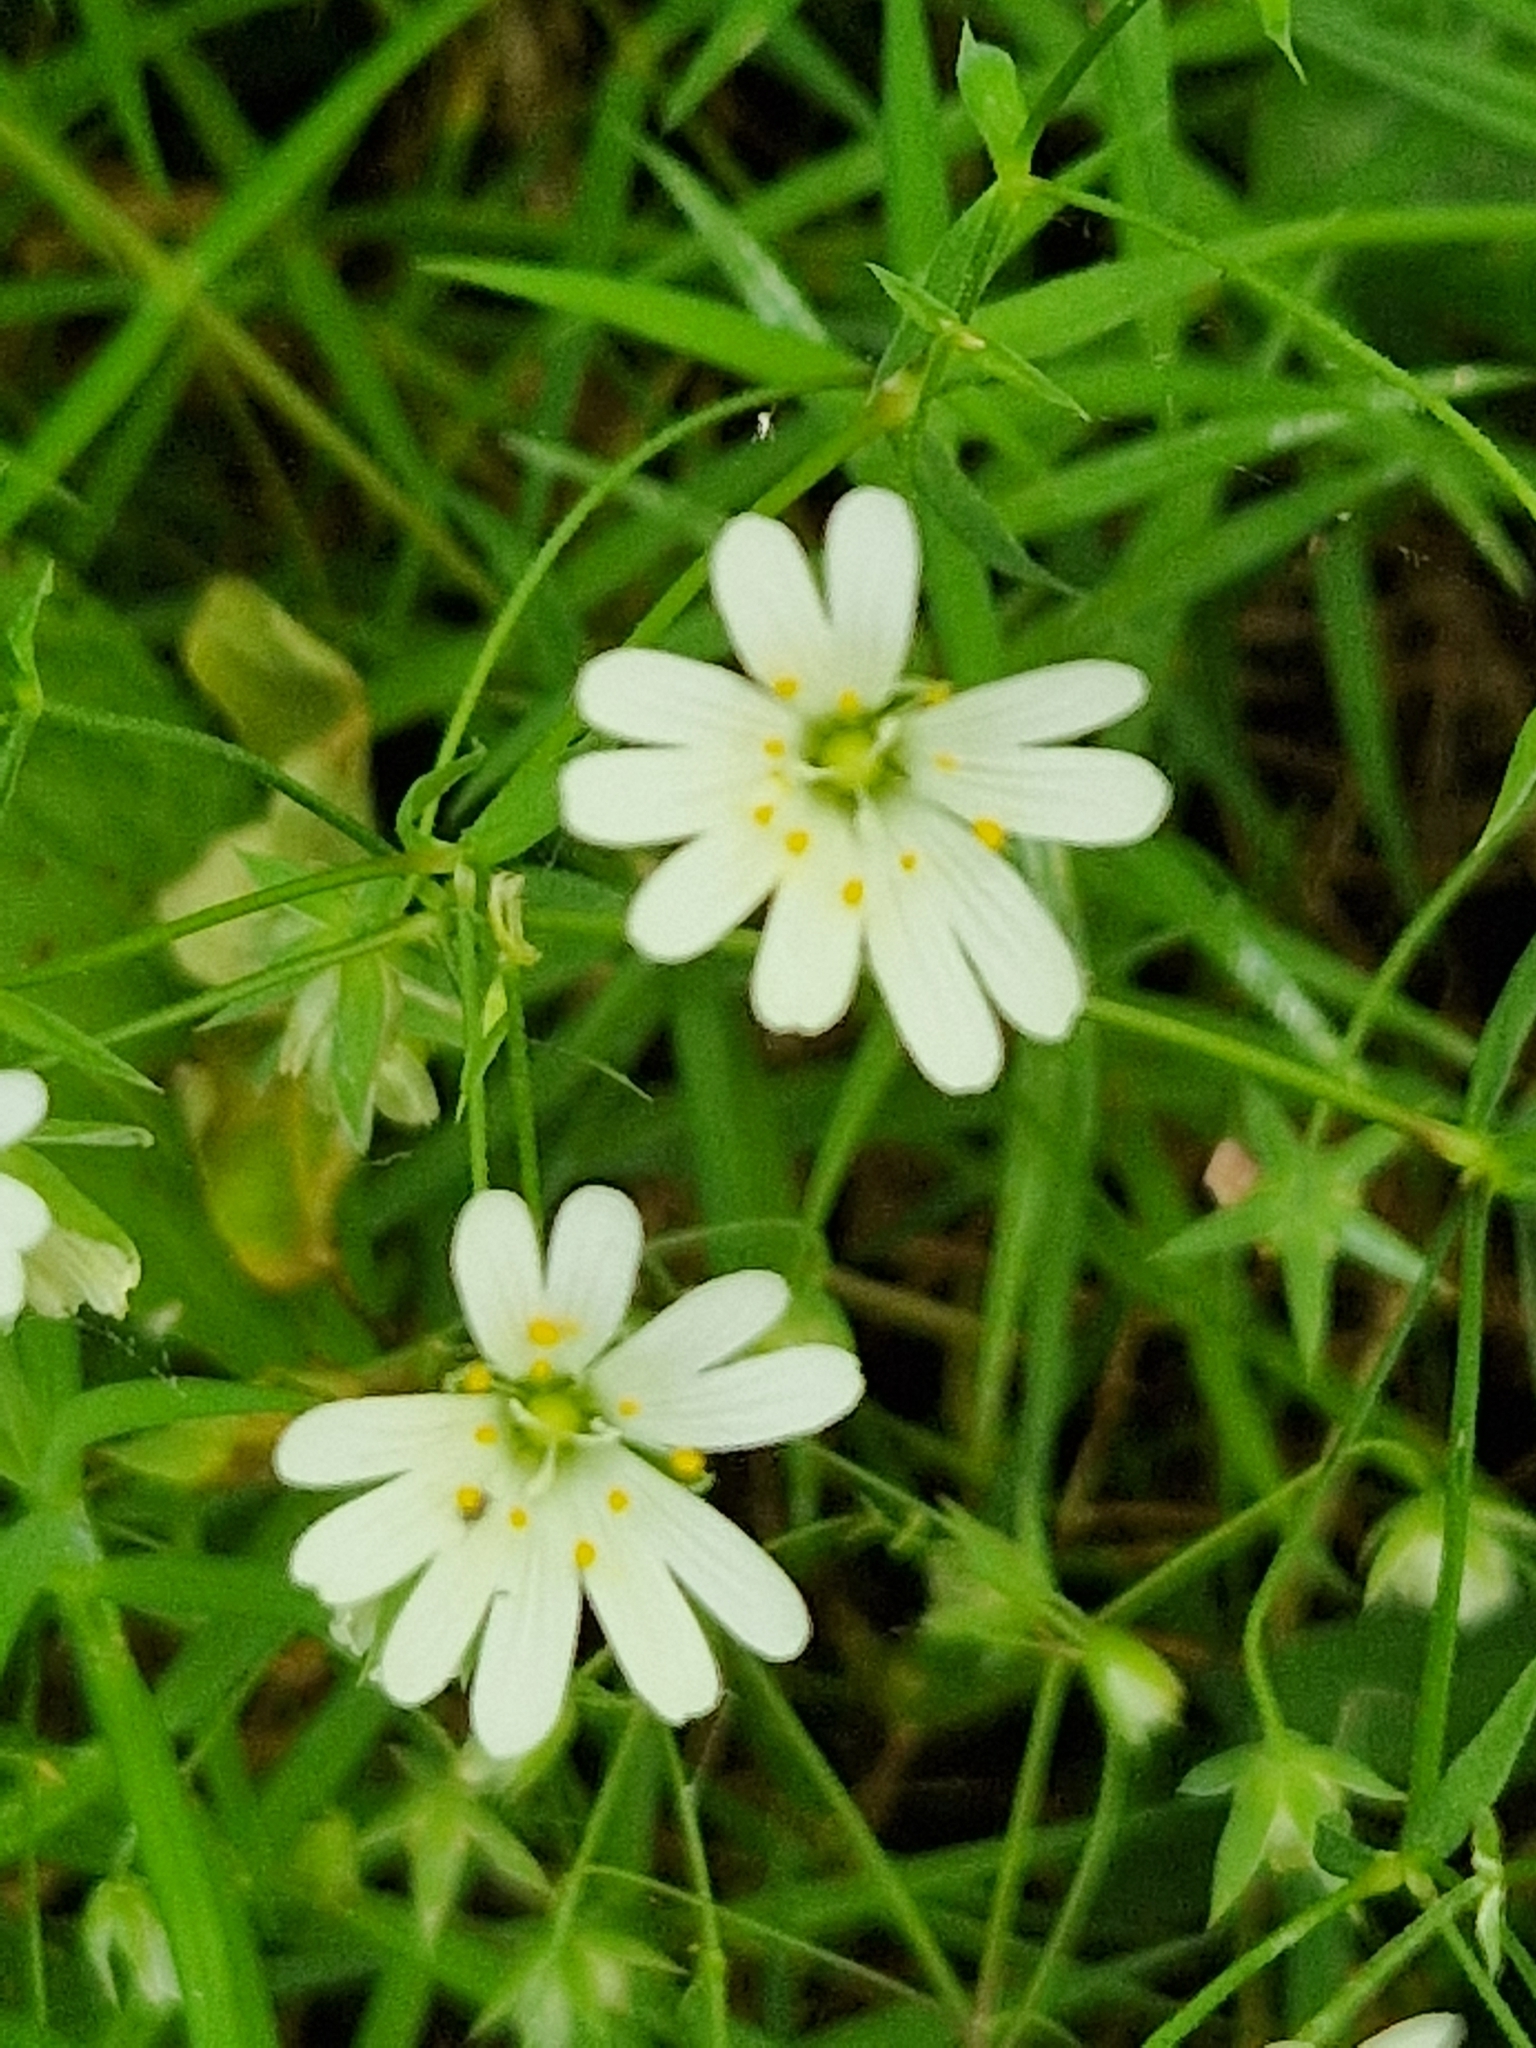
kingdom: Plantae
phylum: Tracheophyta
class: Magnoliopsida
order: Caryophyllales
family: Caryophyllaceae
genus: Rabelera
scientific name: Rabelera holostea
